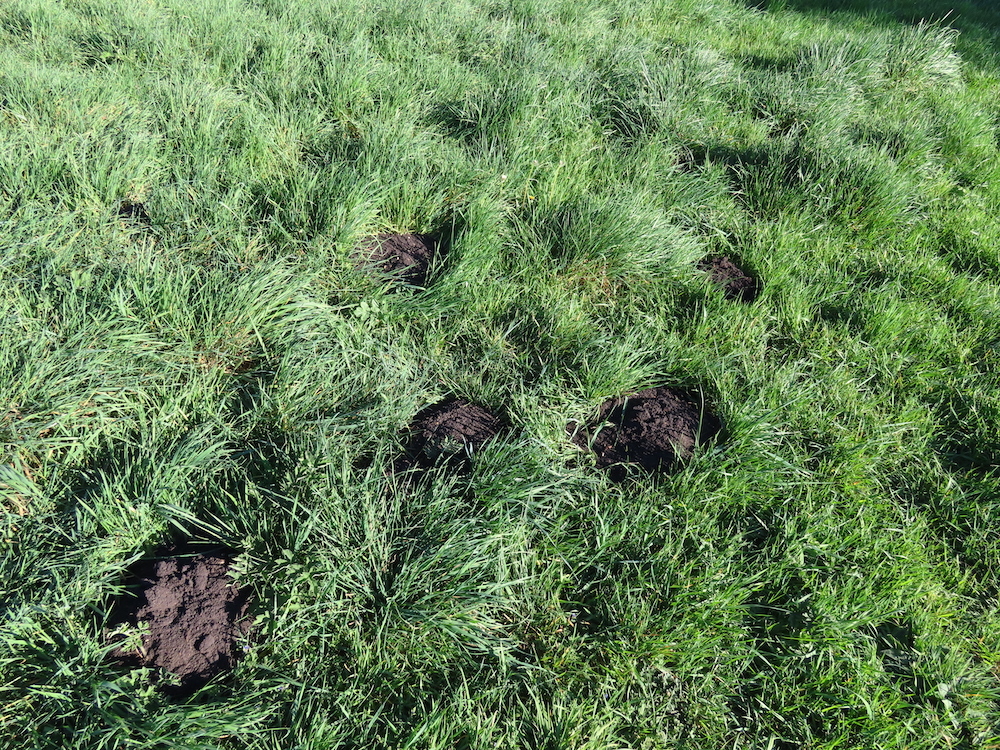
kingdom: Animalia
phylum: Chordata
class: Mammalia
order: Soricomorpha
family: Talpidae
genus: Talpa
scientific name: Talpa europaea
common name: European mole
